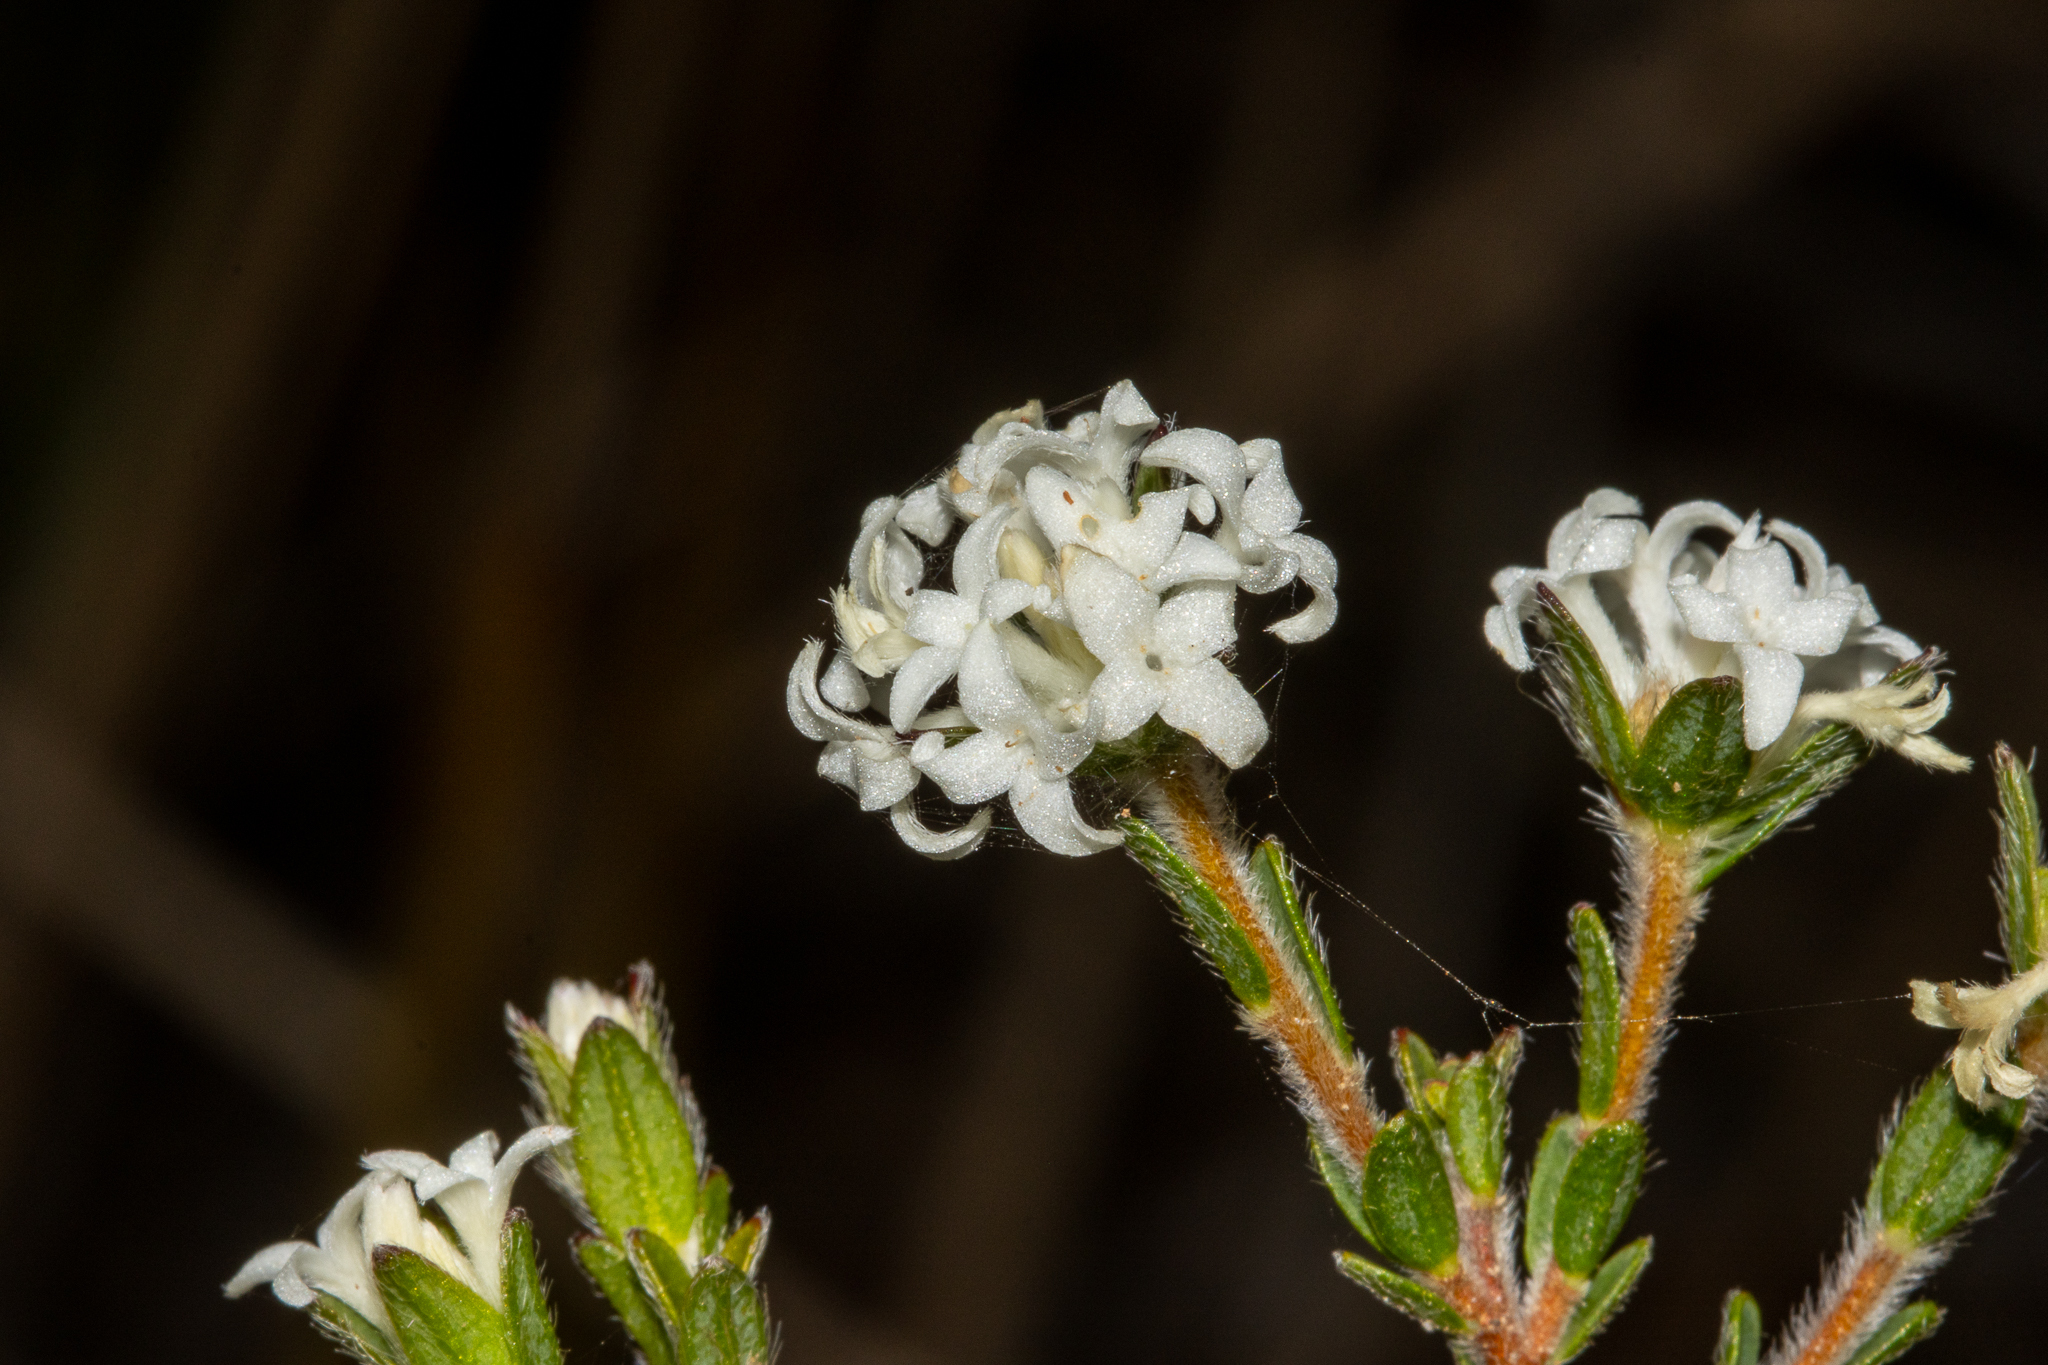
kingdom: Plantae
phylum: Tracheophyta
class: Magnoliopsida
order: Malvales
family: Thymelaeaceae
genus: Pimelea
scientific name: Pimelea phylicoides
